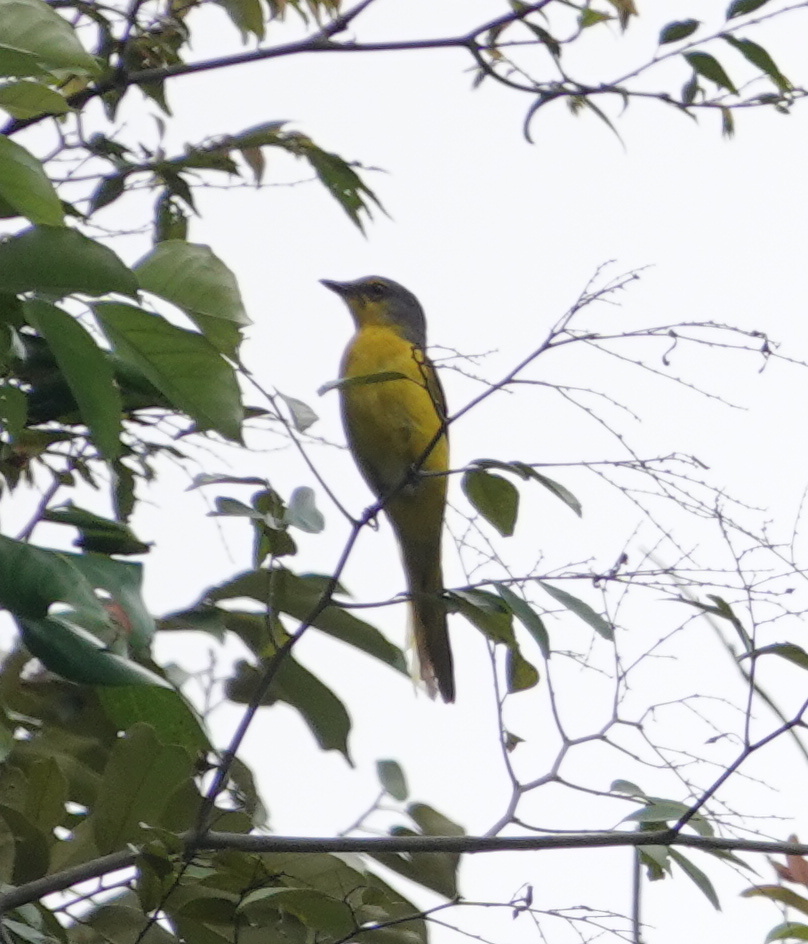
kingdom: Animalia
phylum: Chordata
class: Aves
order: Passeriformes
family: Campephagidae
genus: Pericrocotus
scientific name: Pericrocotus flammeus
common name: Orange minivet
